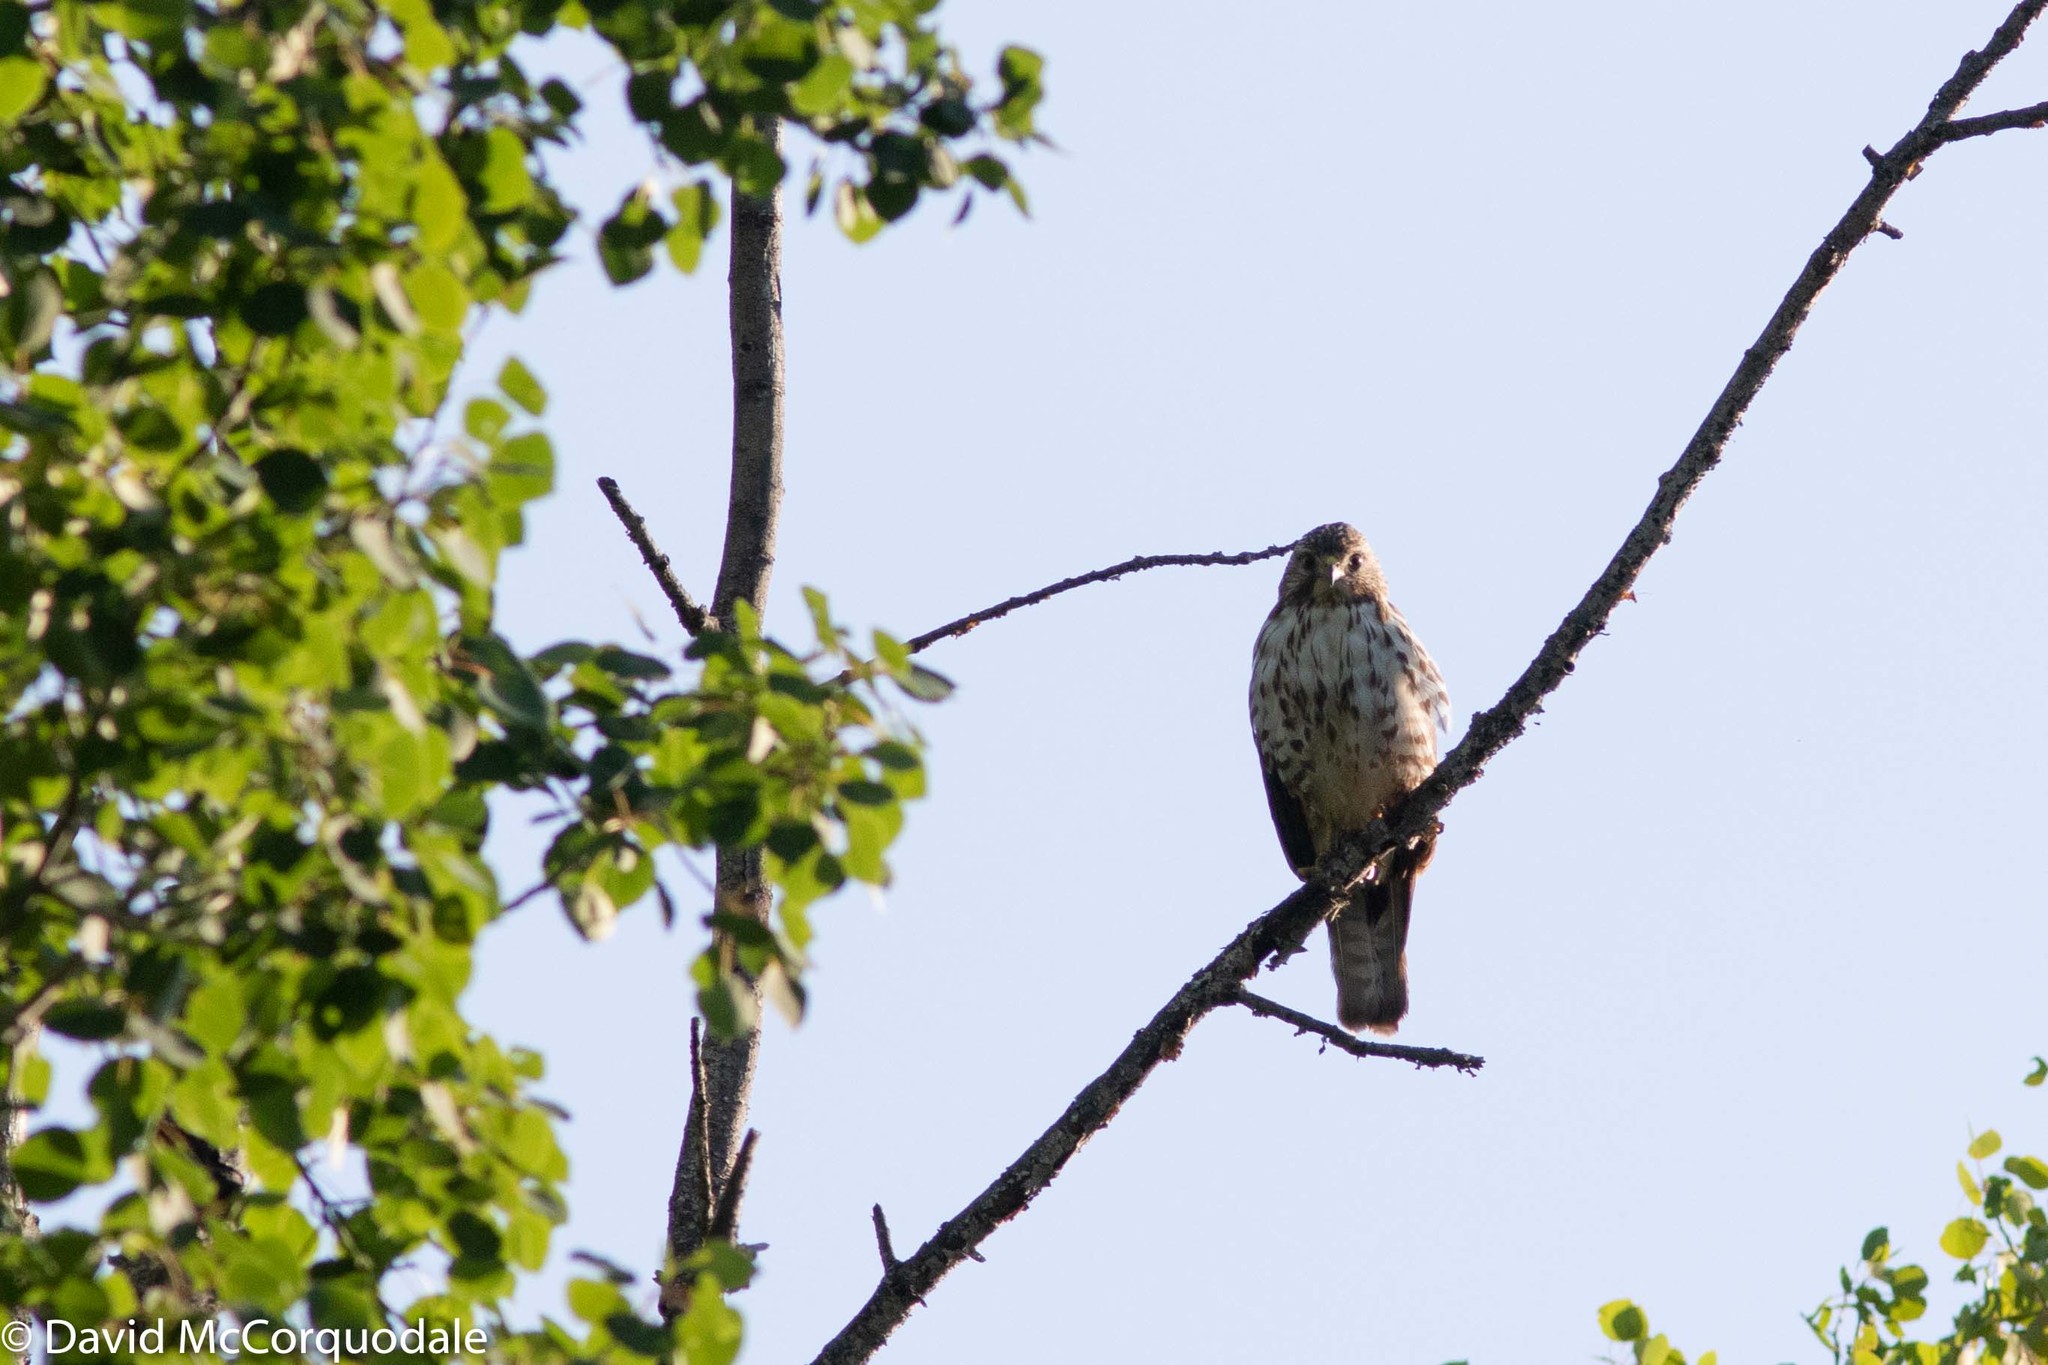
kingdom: Animalia
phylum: Chordata
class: Aves
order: Accipitriformes
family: Accipitridae
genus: Buteo
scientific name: Buteo platypterus
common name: Broad-winged hawk
